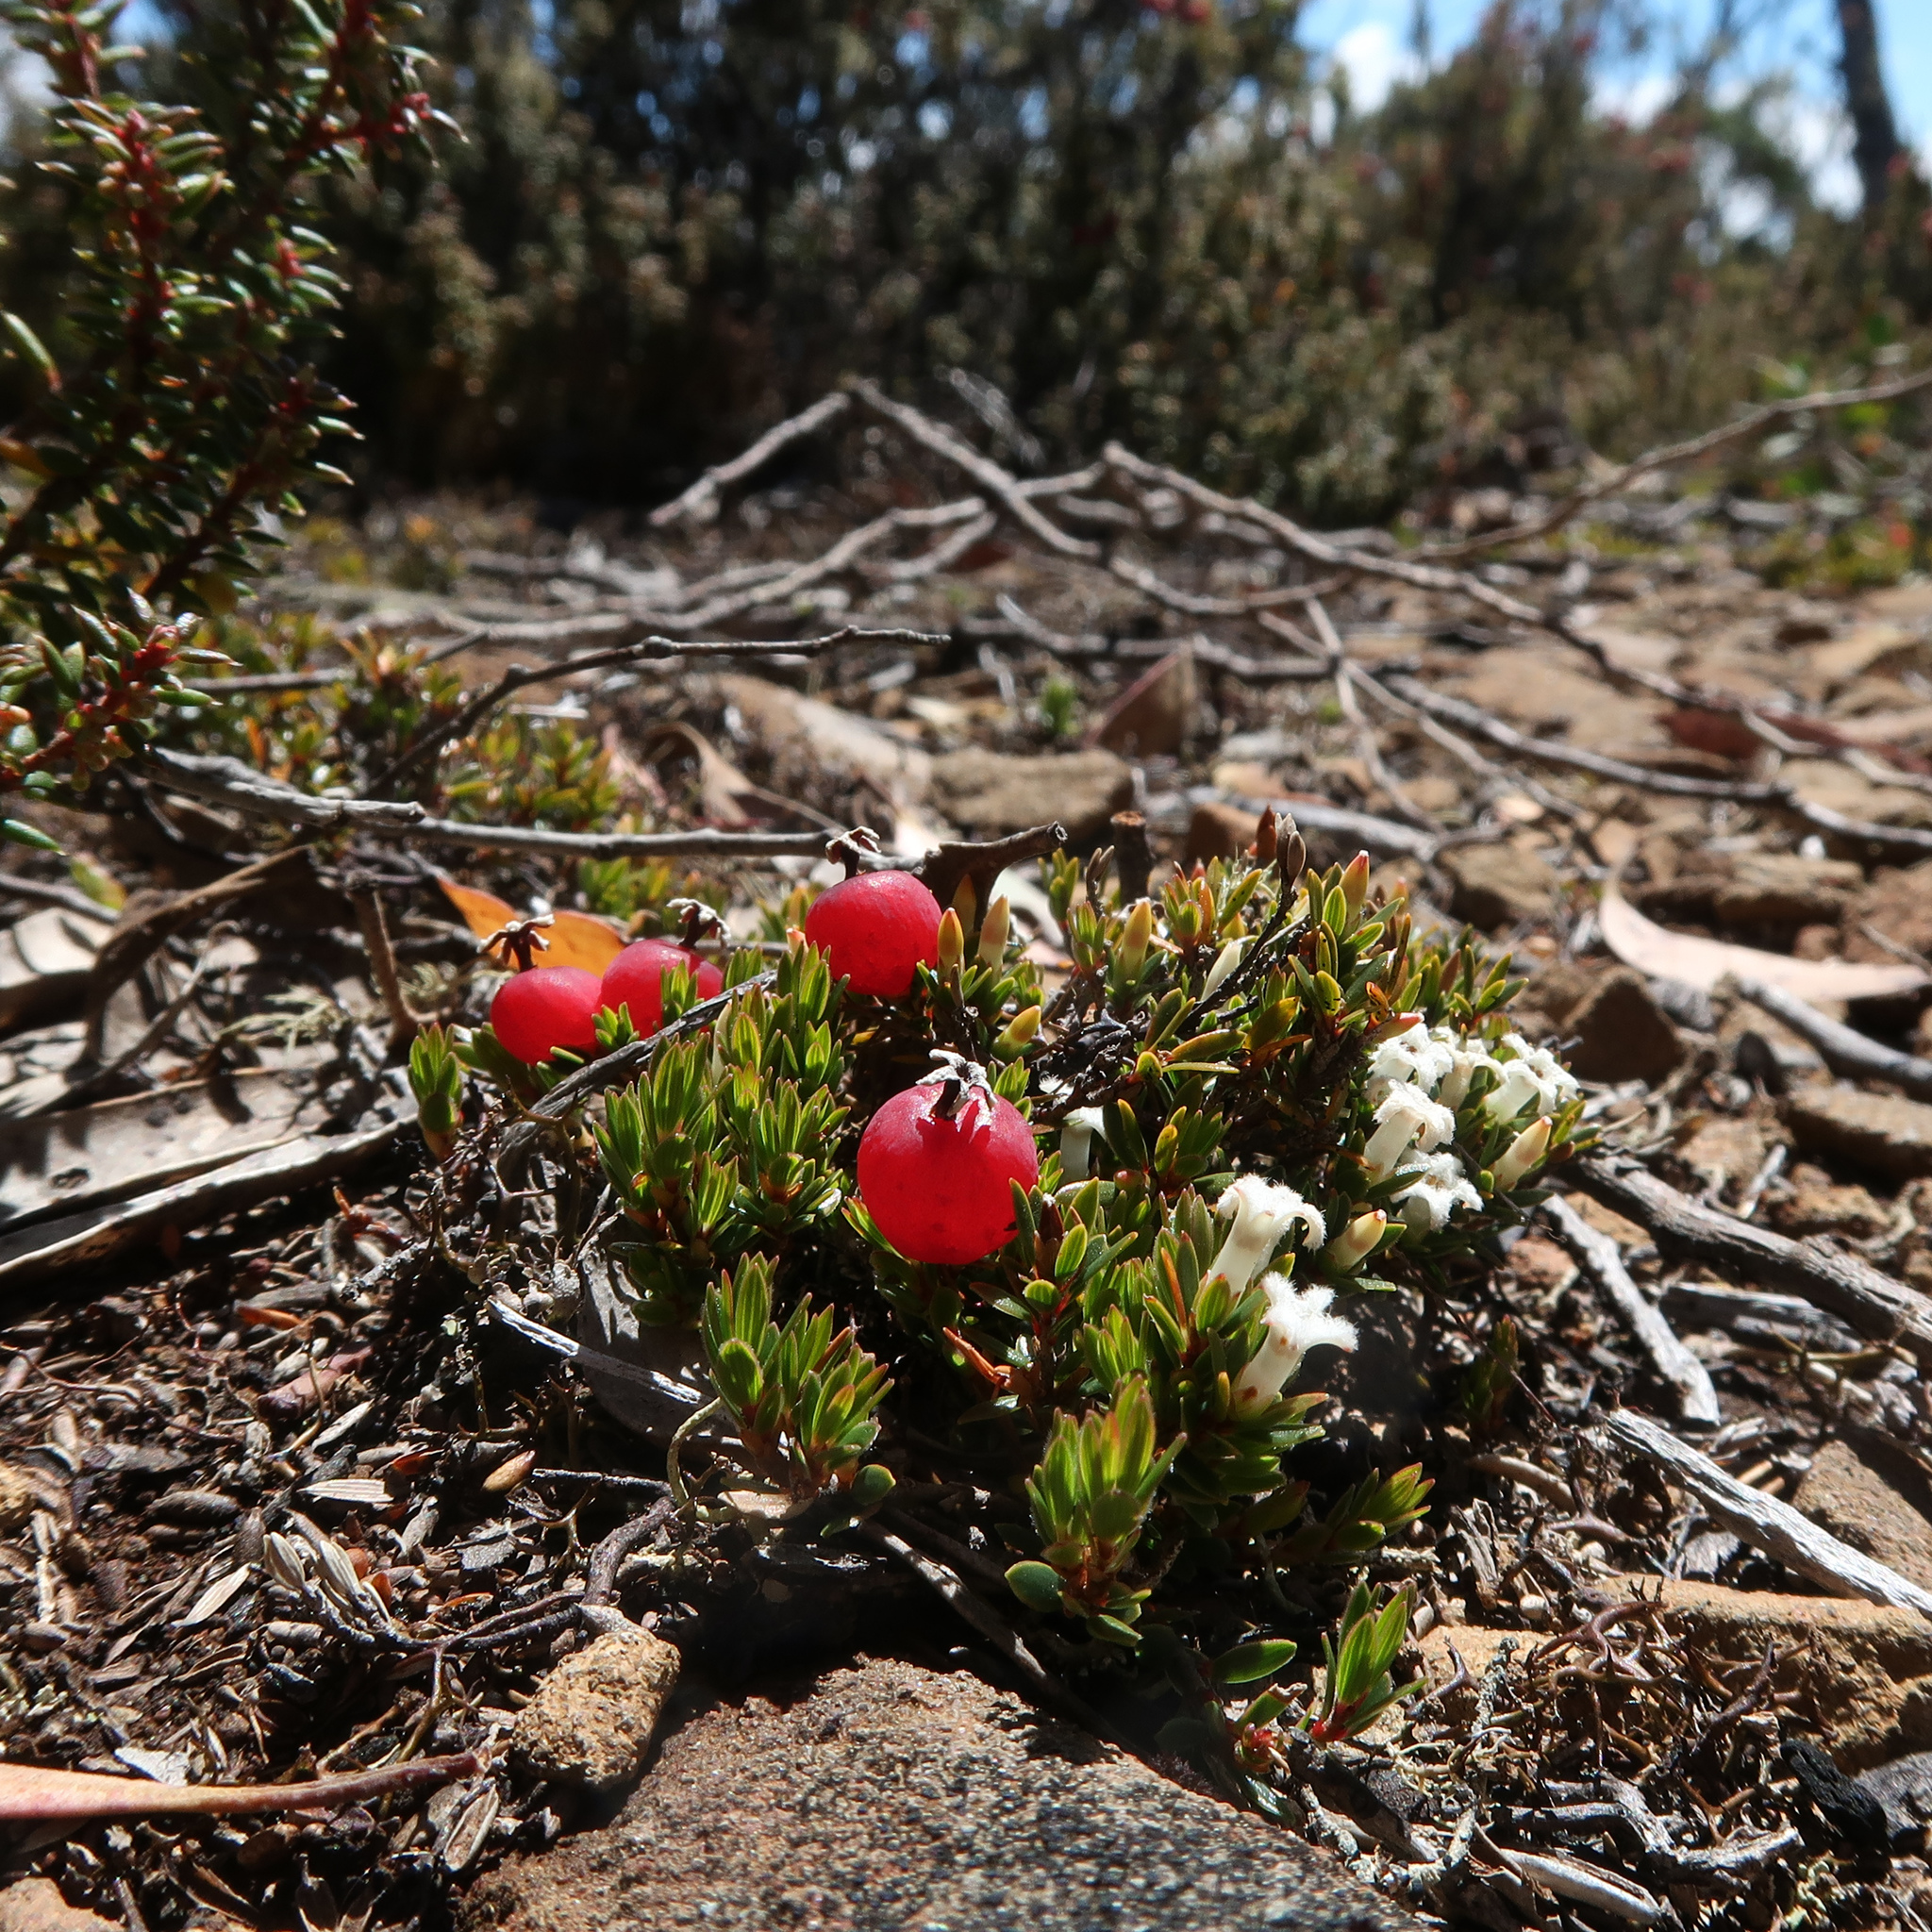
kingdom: Plantae
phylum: Tracheophyta
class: Magnoliopsida
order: Ericales
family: Ericaceae
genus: Pentachondra
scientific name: Pentachondra pumila
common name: Carpet-heath
